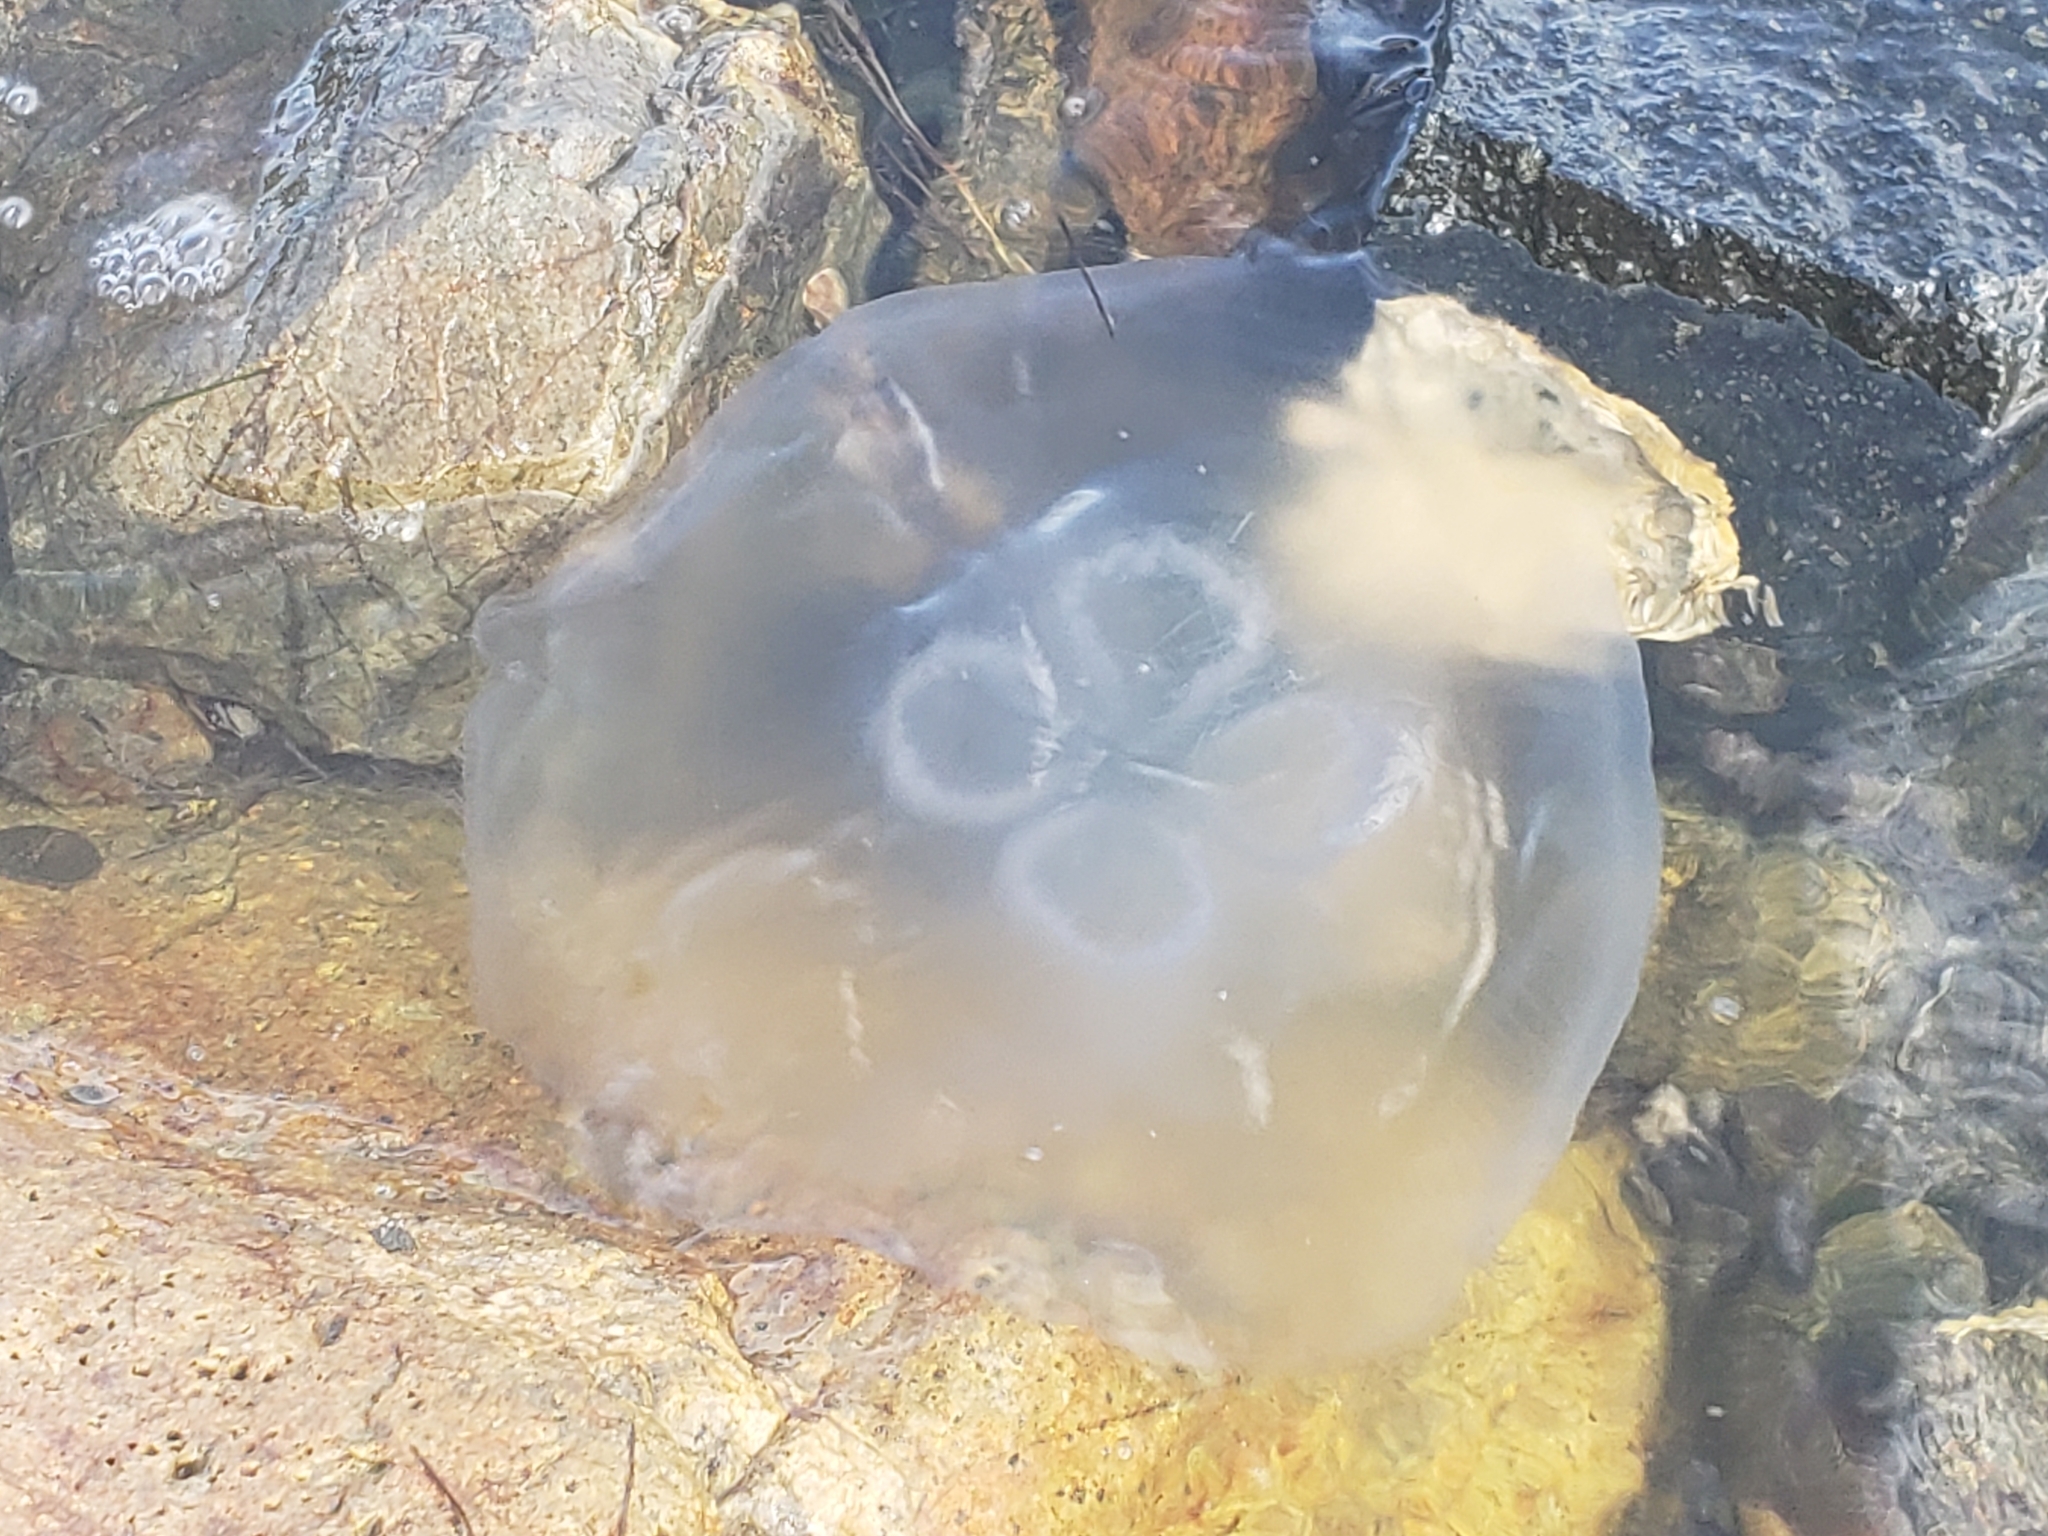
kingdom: Animalia
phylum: Cnidaria
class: Scyphozoa
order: Semaeostomeae
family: Ulmaridae
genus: Aurelia
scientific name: Aurelia labiata
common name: Pacific moon jelly
